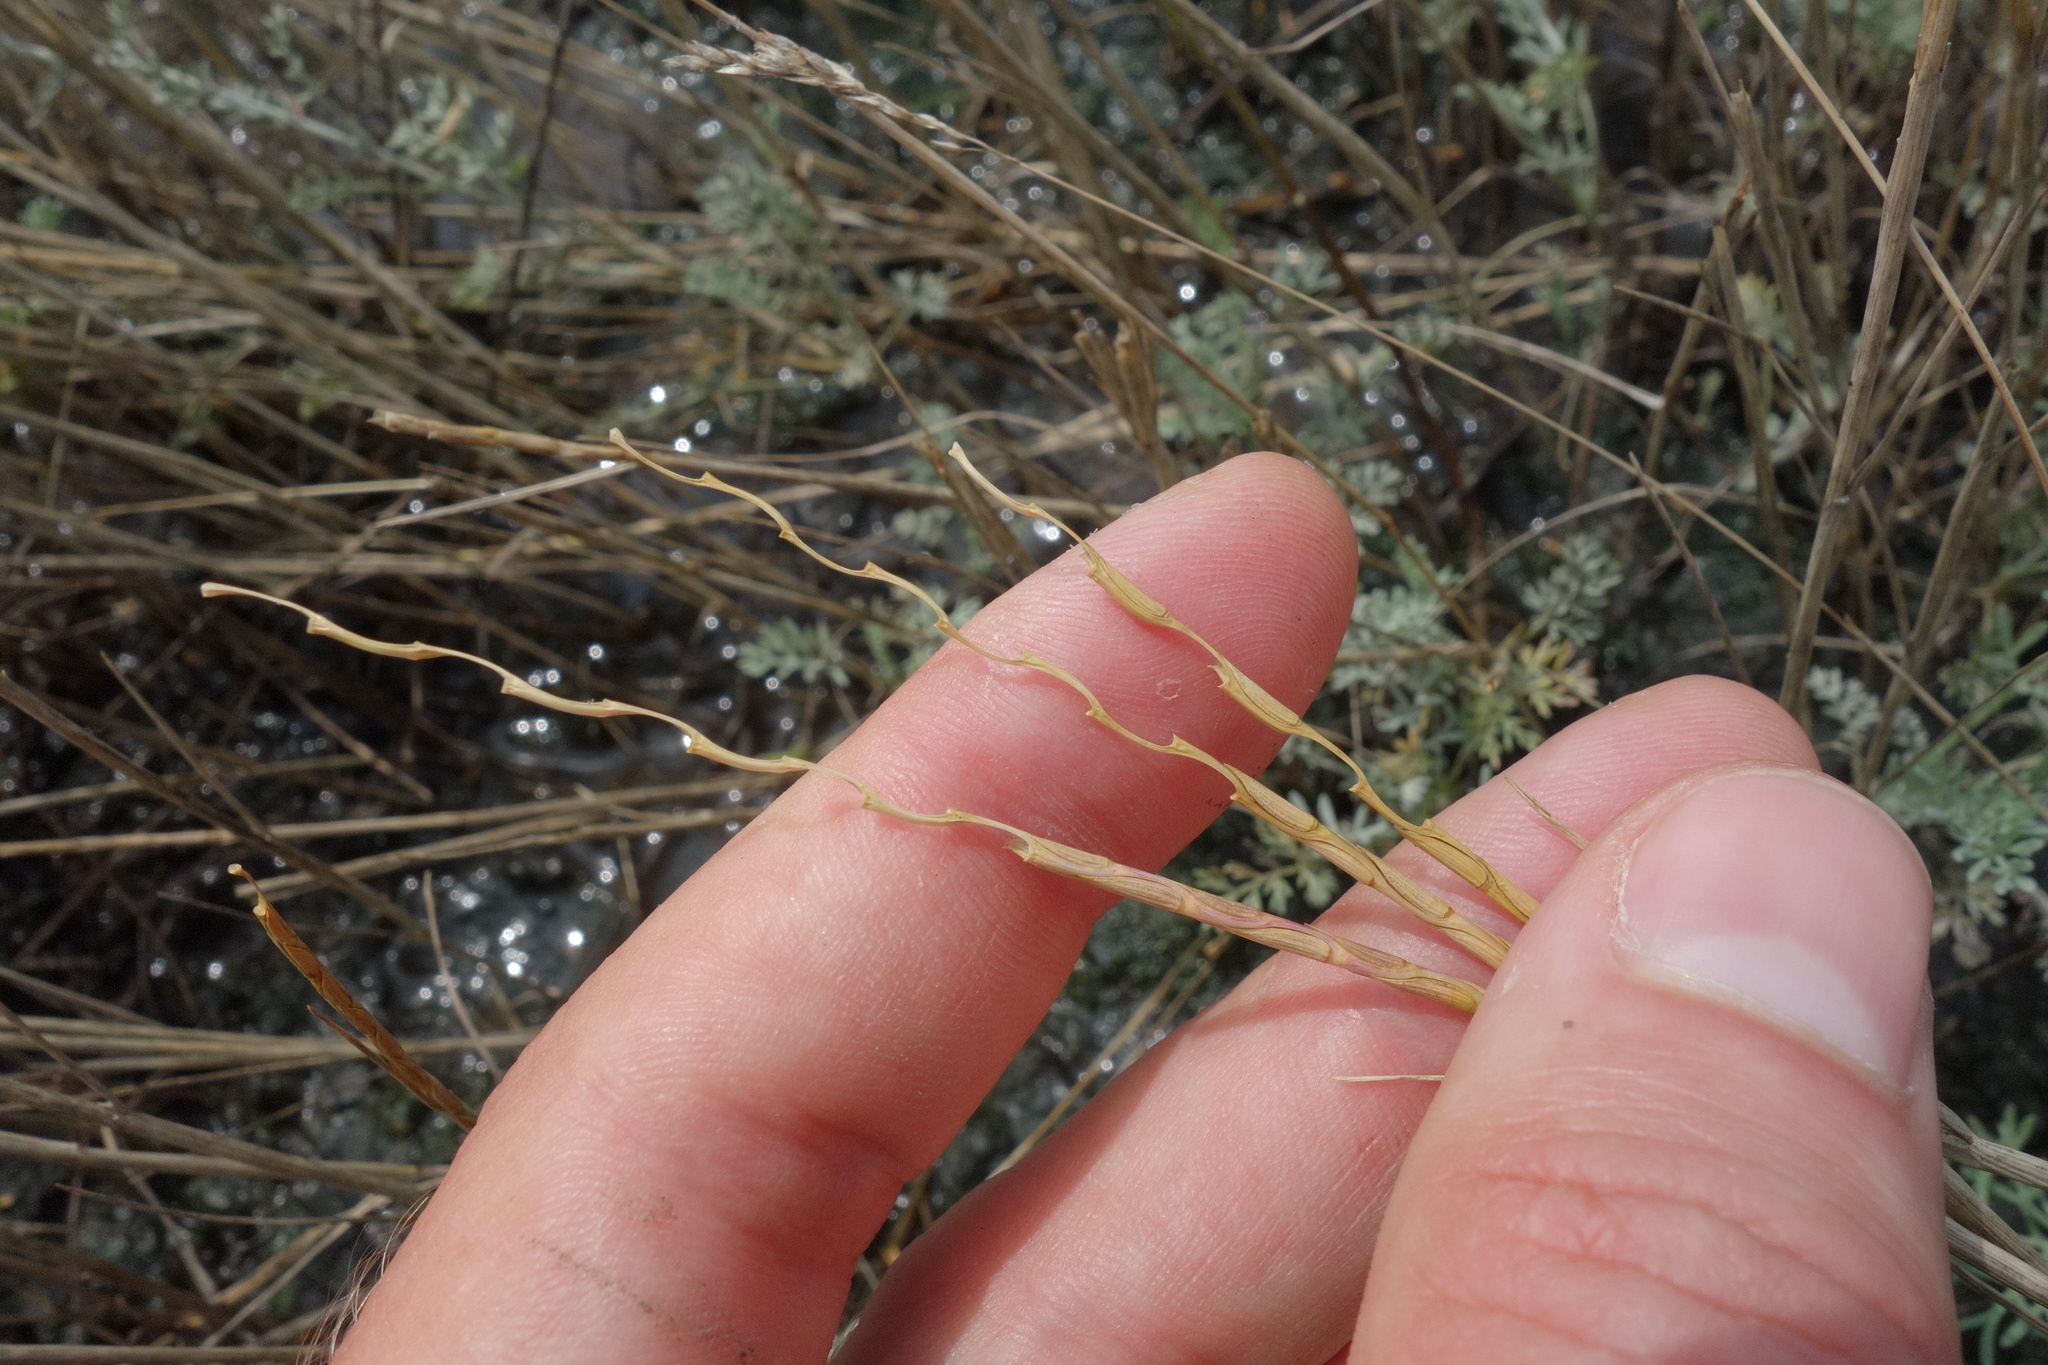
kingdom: Plantae
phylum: Tracheophyta
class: Liliopsida
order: Poales
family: Poaceae
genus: Pholiurus
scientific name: Pholiurus pannonicus
